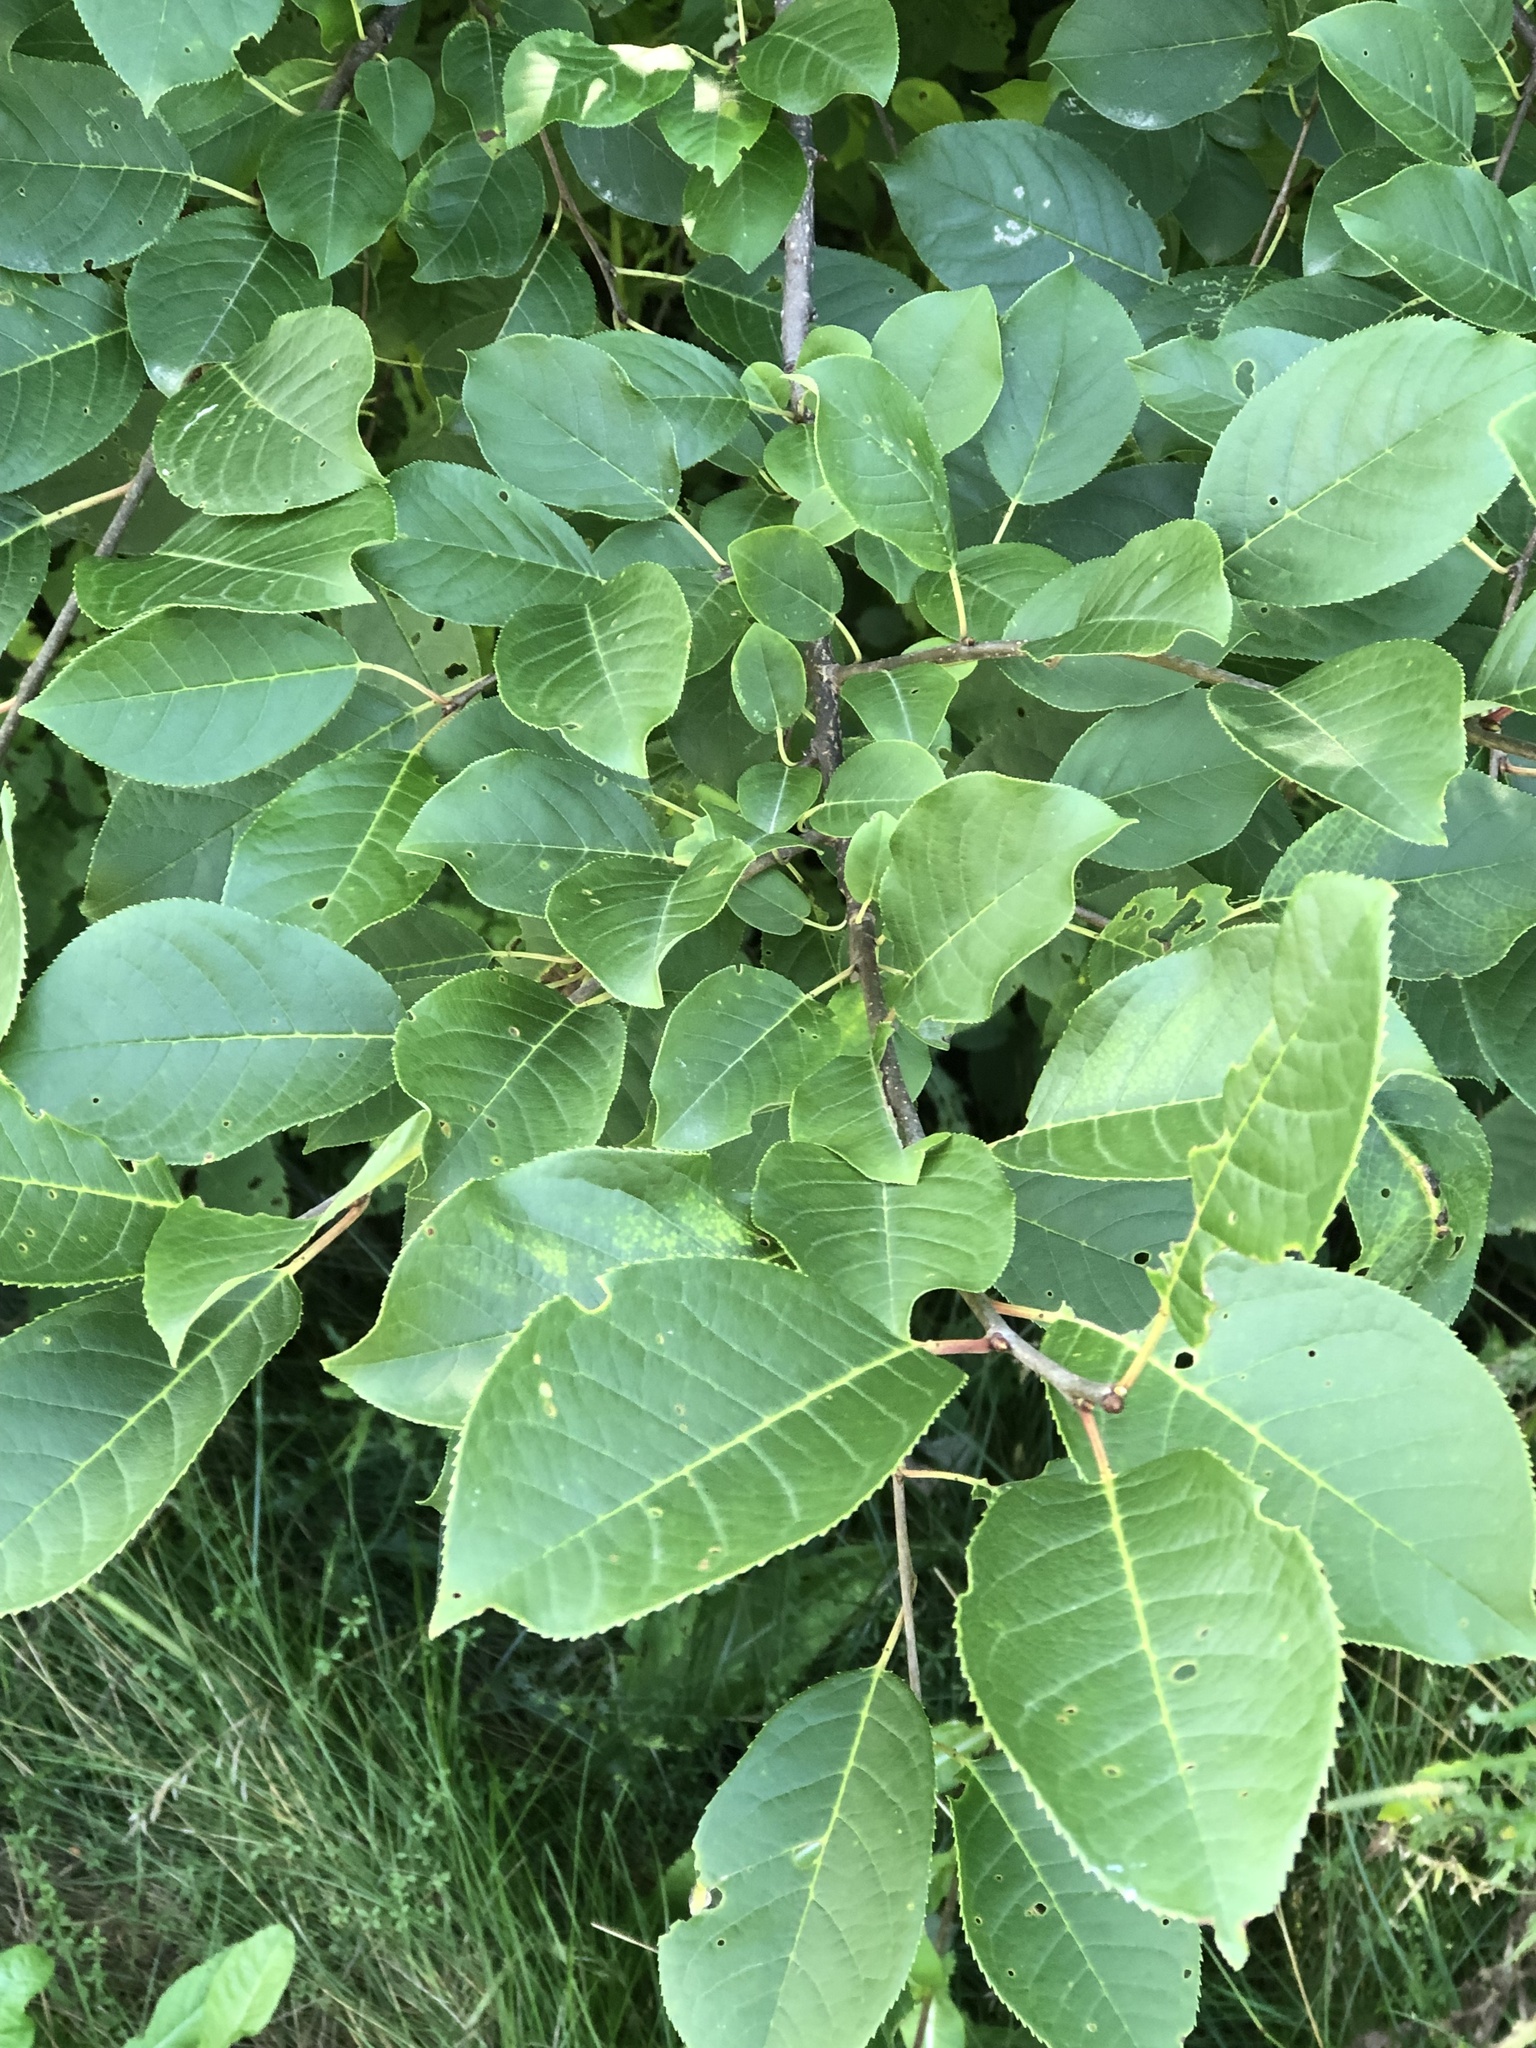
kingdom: Plantae
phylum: Tracheophyta
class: Magnoliopsida
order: Rosales
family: Rosaceae
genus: Prunus
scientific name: Prunus virginiana
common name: Chokecherry
